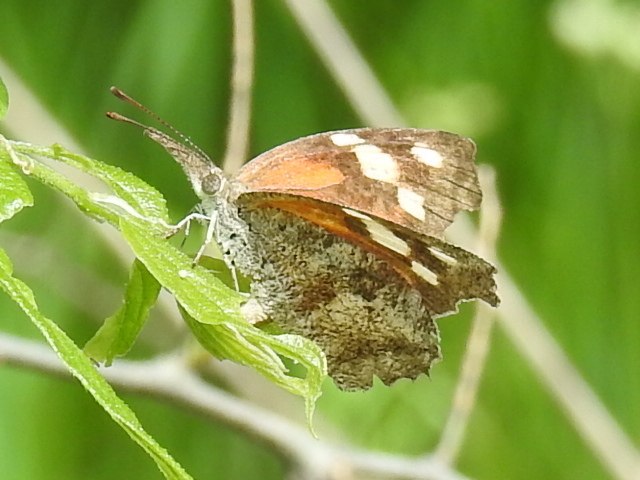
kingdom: Animalia
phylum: Arthropoda
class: Insecta
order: Lepidoptera
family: Nymphalidae
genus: Libytheana
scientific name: Libytheana carinenta
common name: American snout
